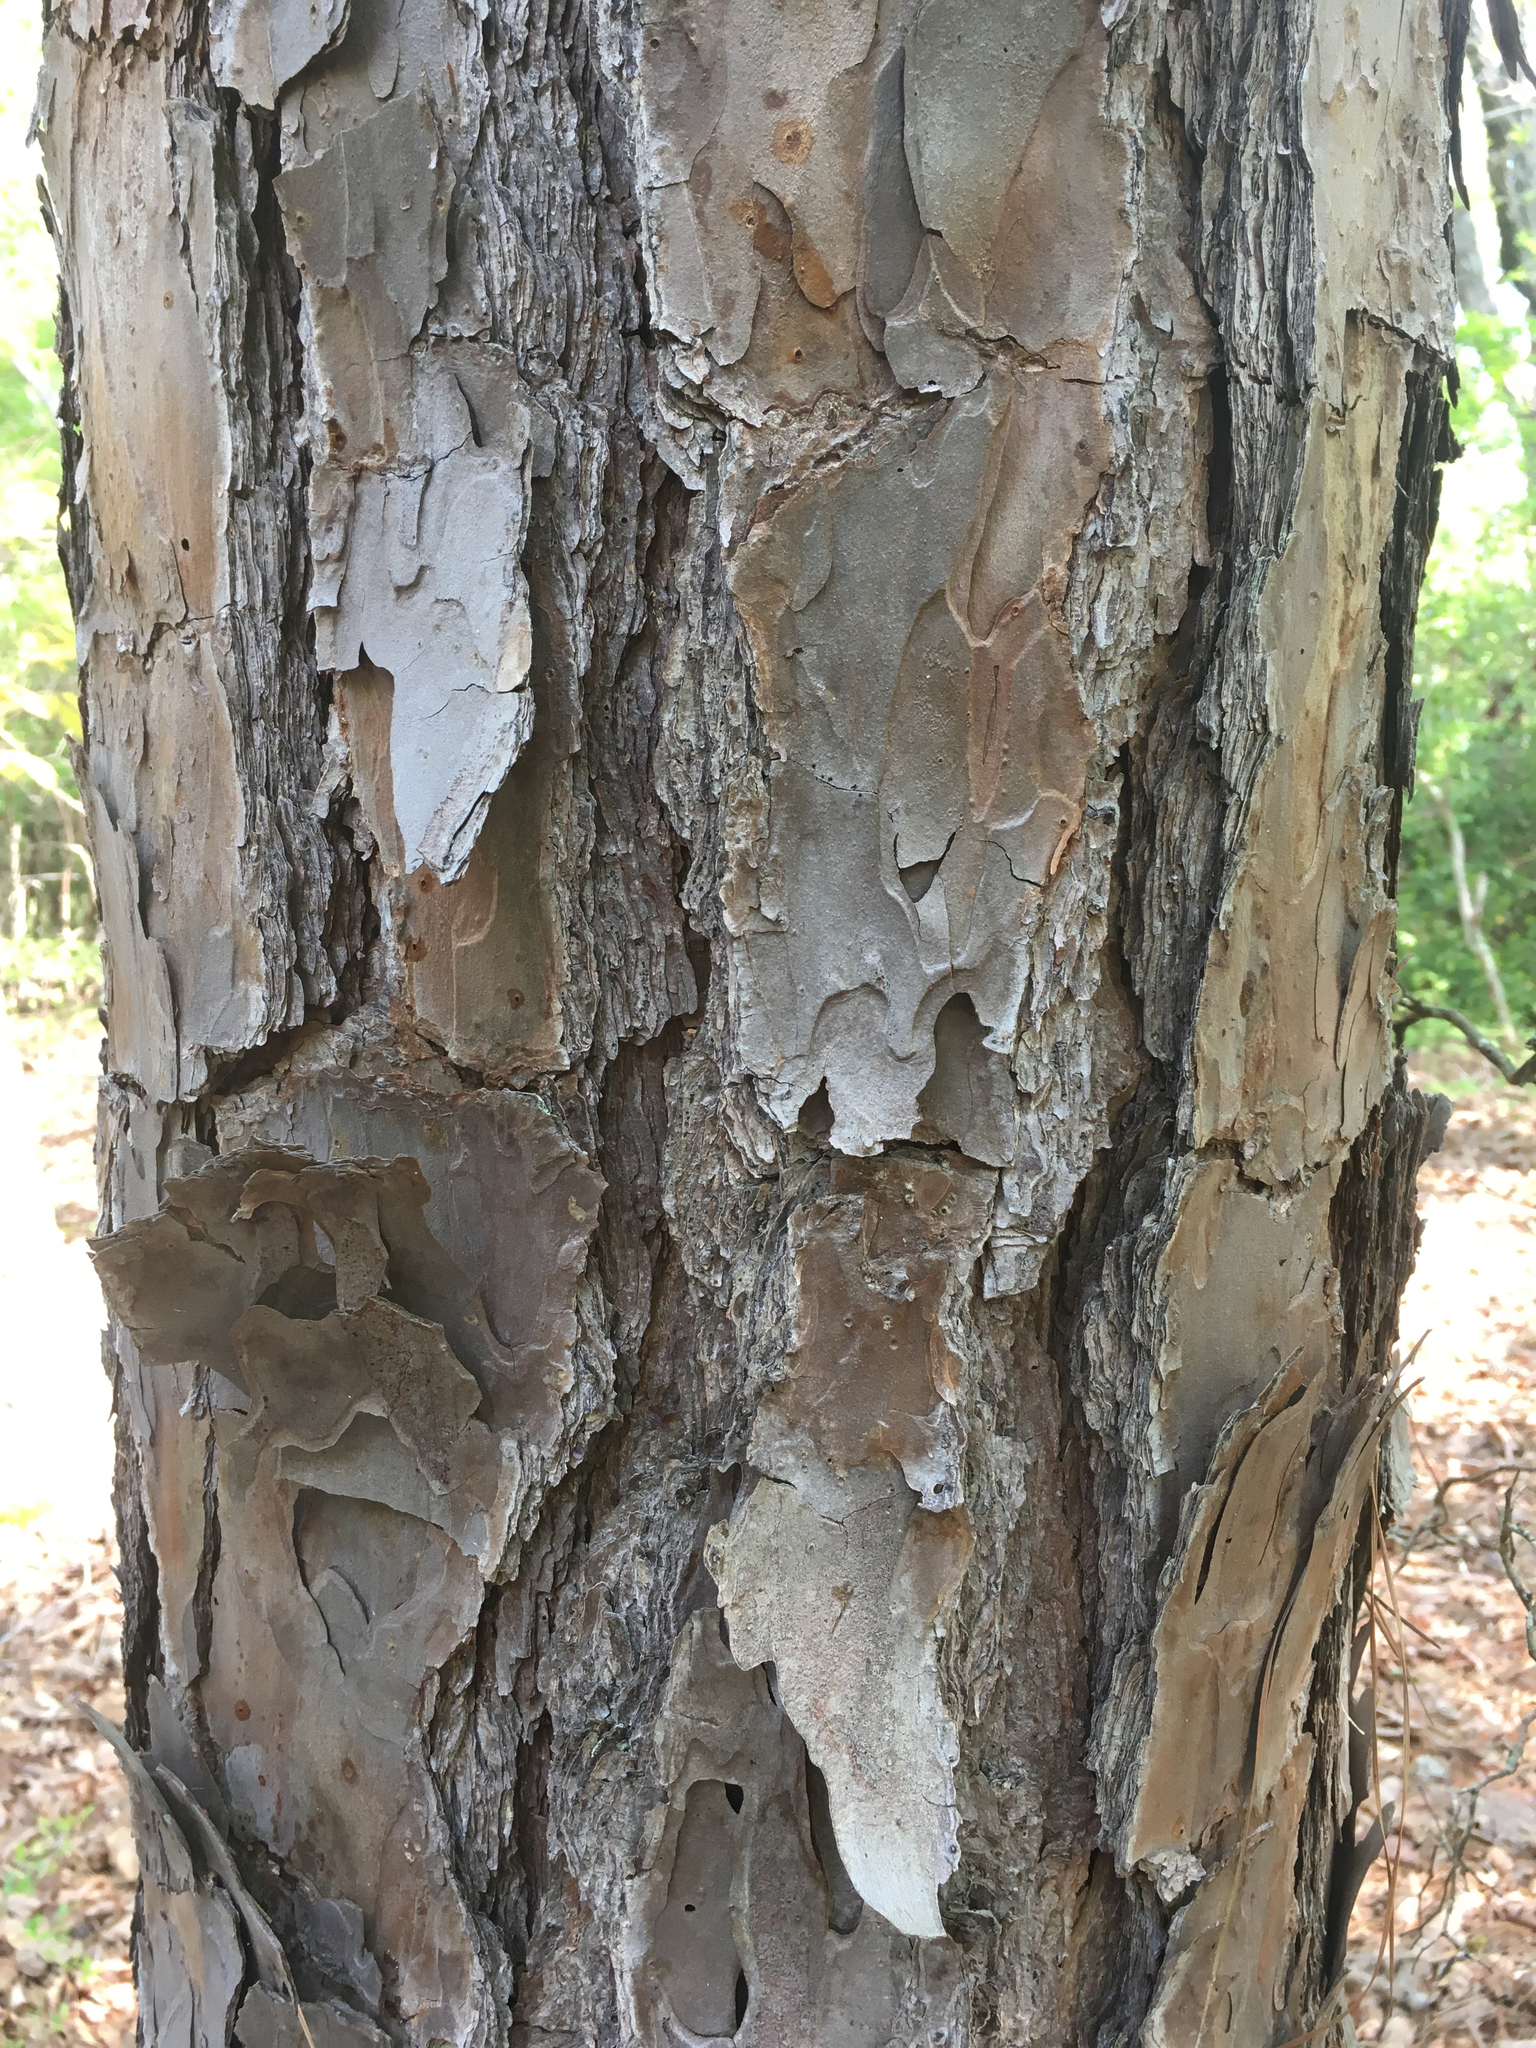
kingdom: Plantae
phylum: Tracheophyta
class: Pinopsida
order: Pinales
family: Pinaceae
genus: Pinus
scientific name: Pinus echinata
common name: Shortleaf pine
